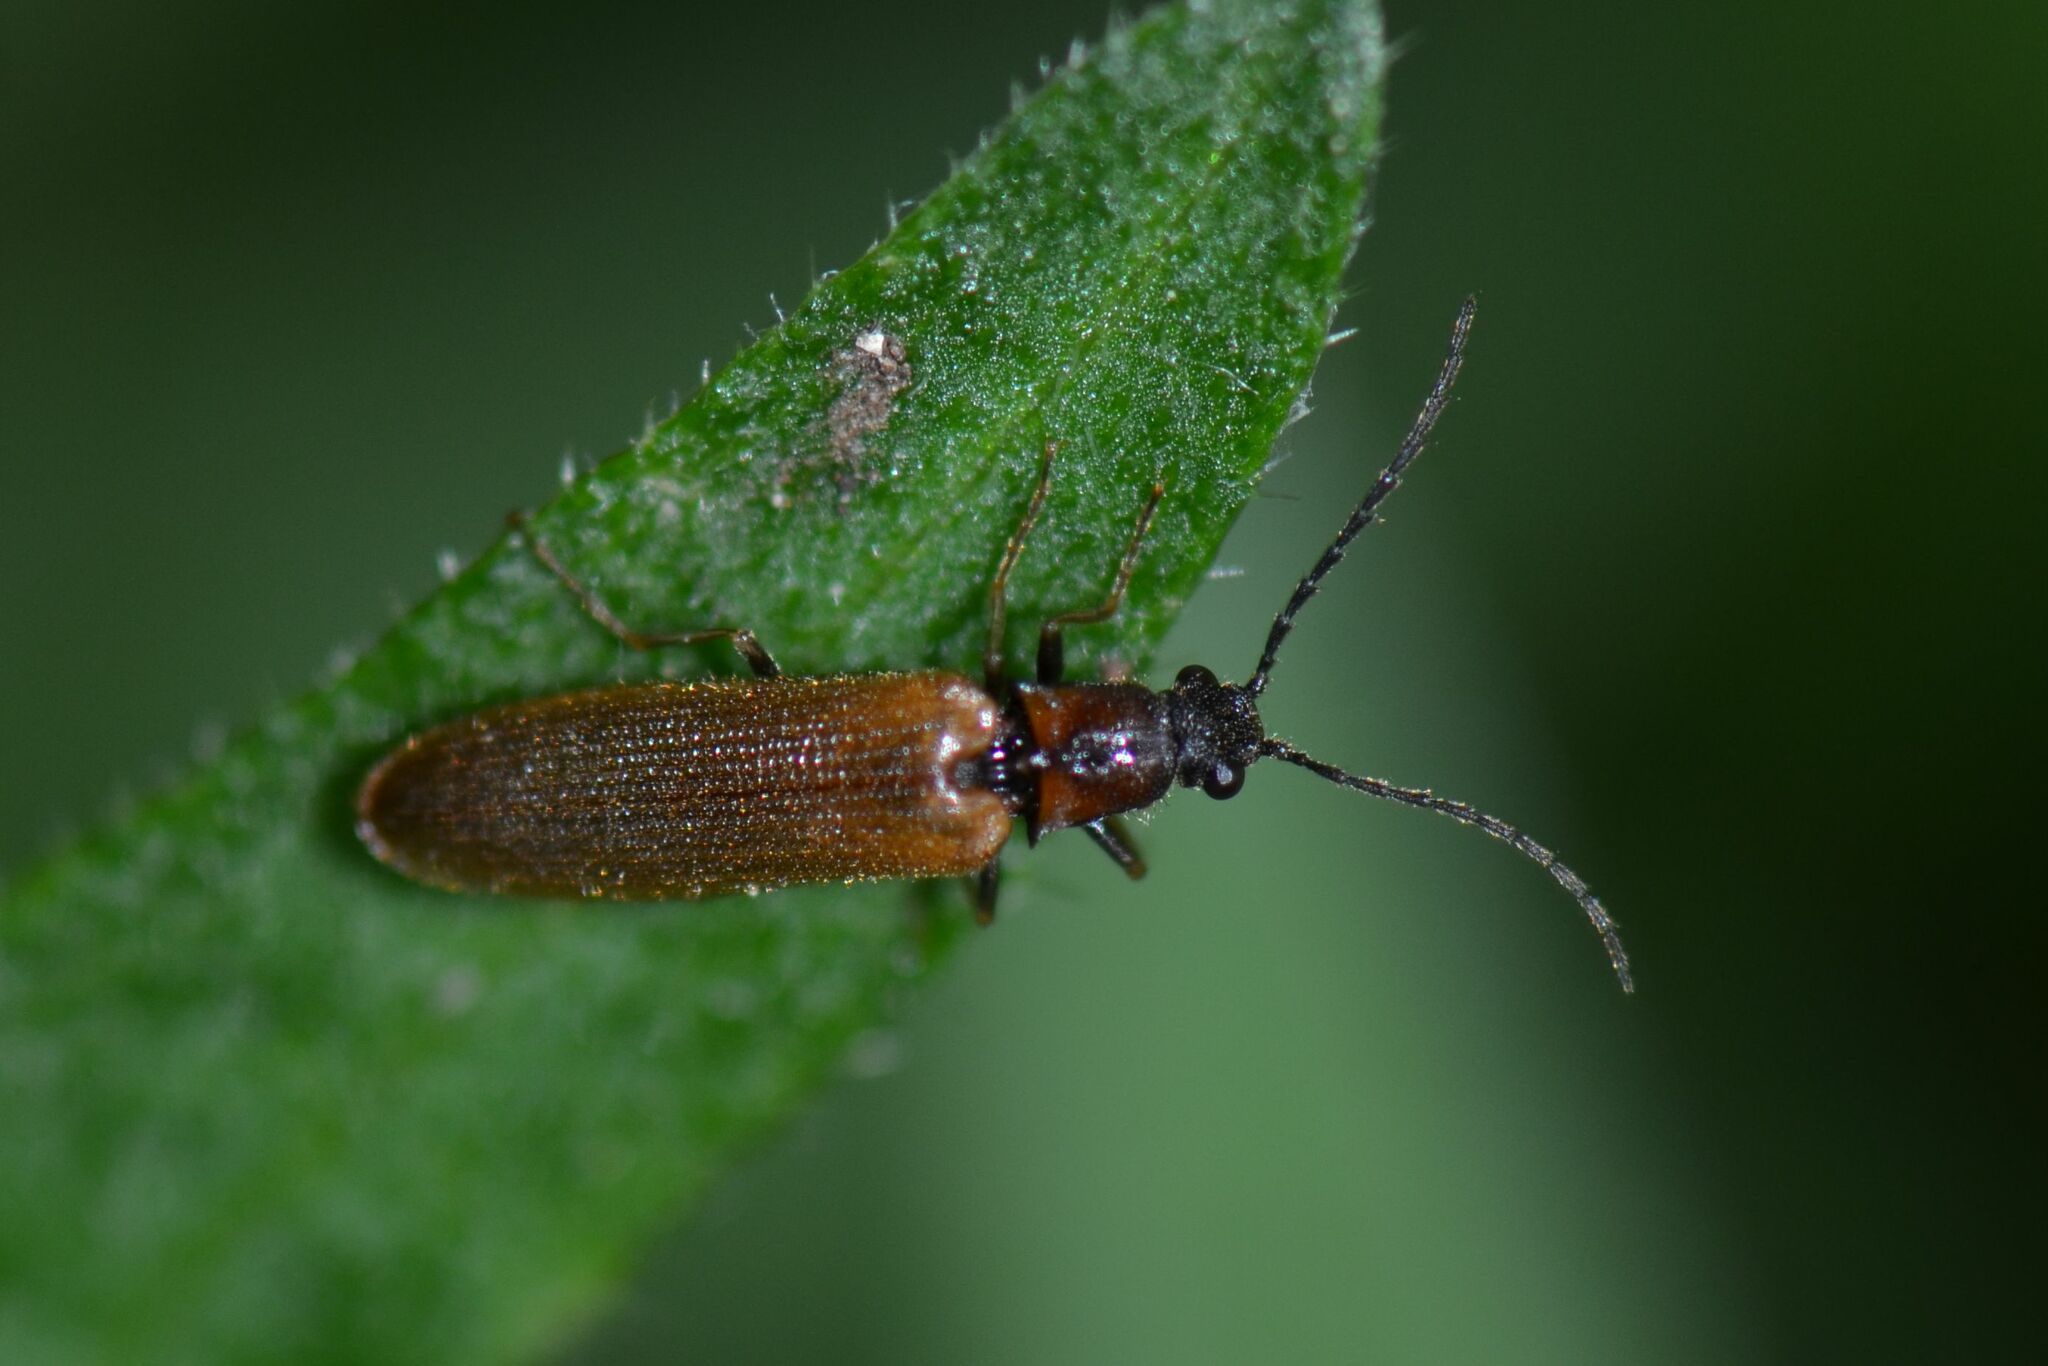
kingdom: Animalia
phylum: Arthropoda
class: Insecta
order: Coleoptera
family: Elateridae
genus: Denticollis
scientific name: Denticollis linearis
